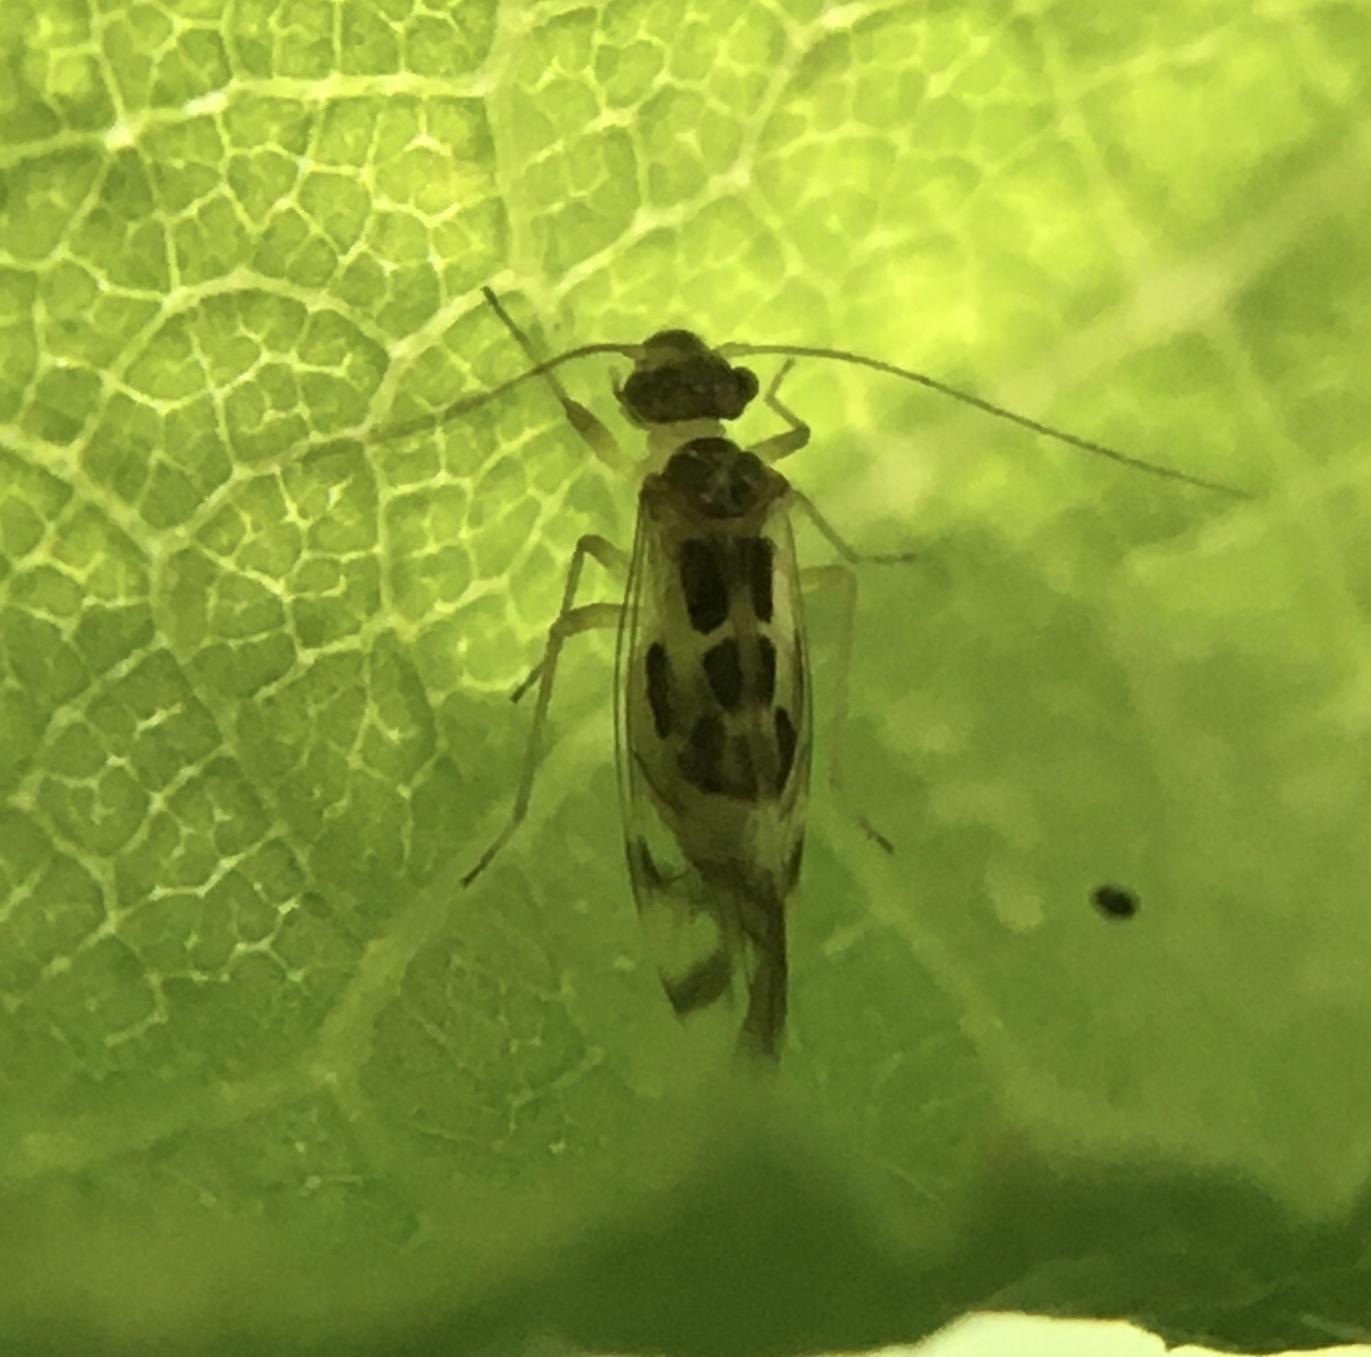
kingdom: Animalia
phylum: Arthropoda
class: Insecta
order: Psocodea
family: Stenopsocidae
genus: Graphopsocus
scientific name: Graphopsocus cruciatus
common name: Lizard bark louse
